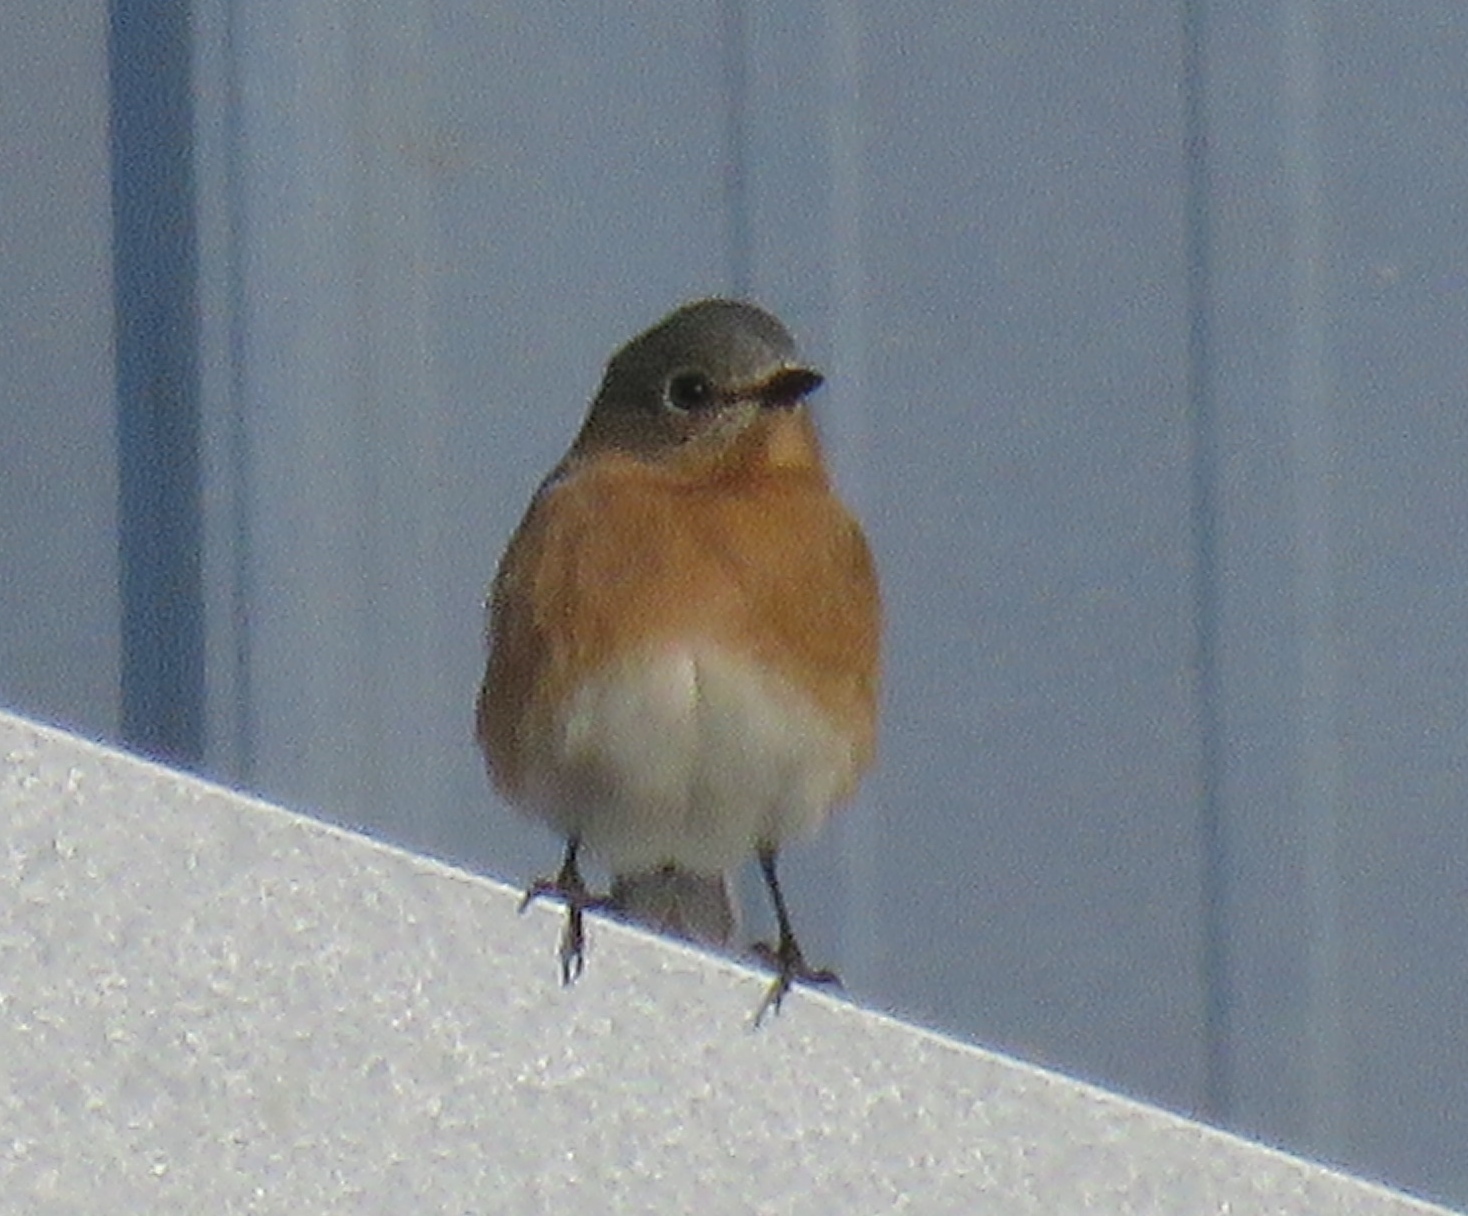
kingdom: Animalia
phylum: Chordata
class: Aves
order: Passeriformes
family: Turdidae
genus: Sialia
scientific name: Sialia sialis
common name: Eastern bluebird
